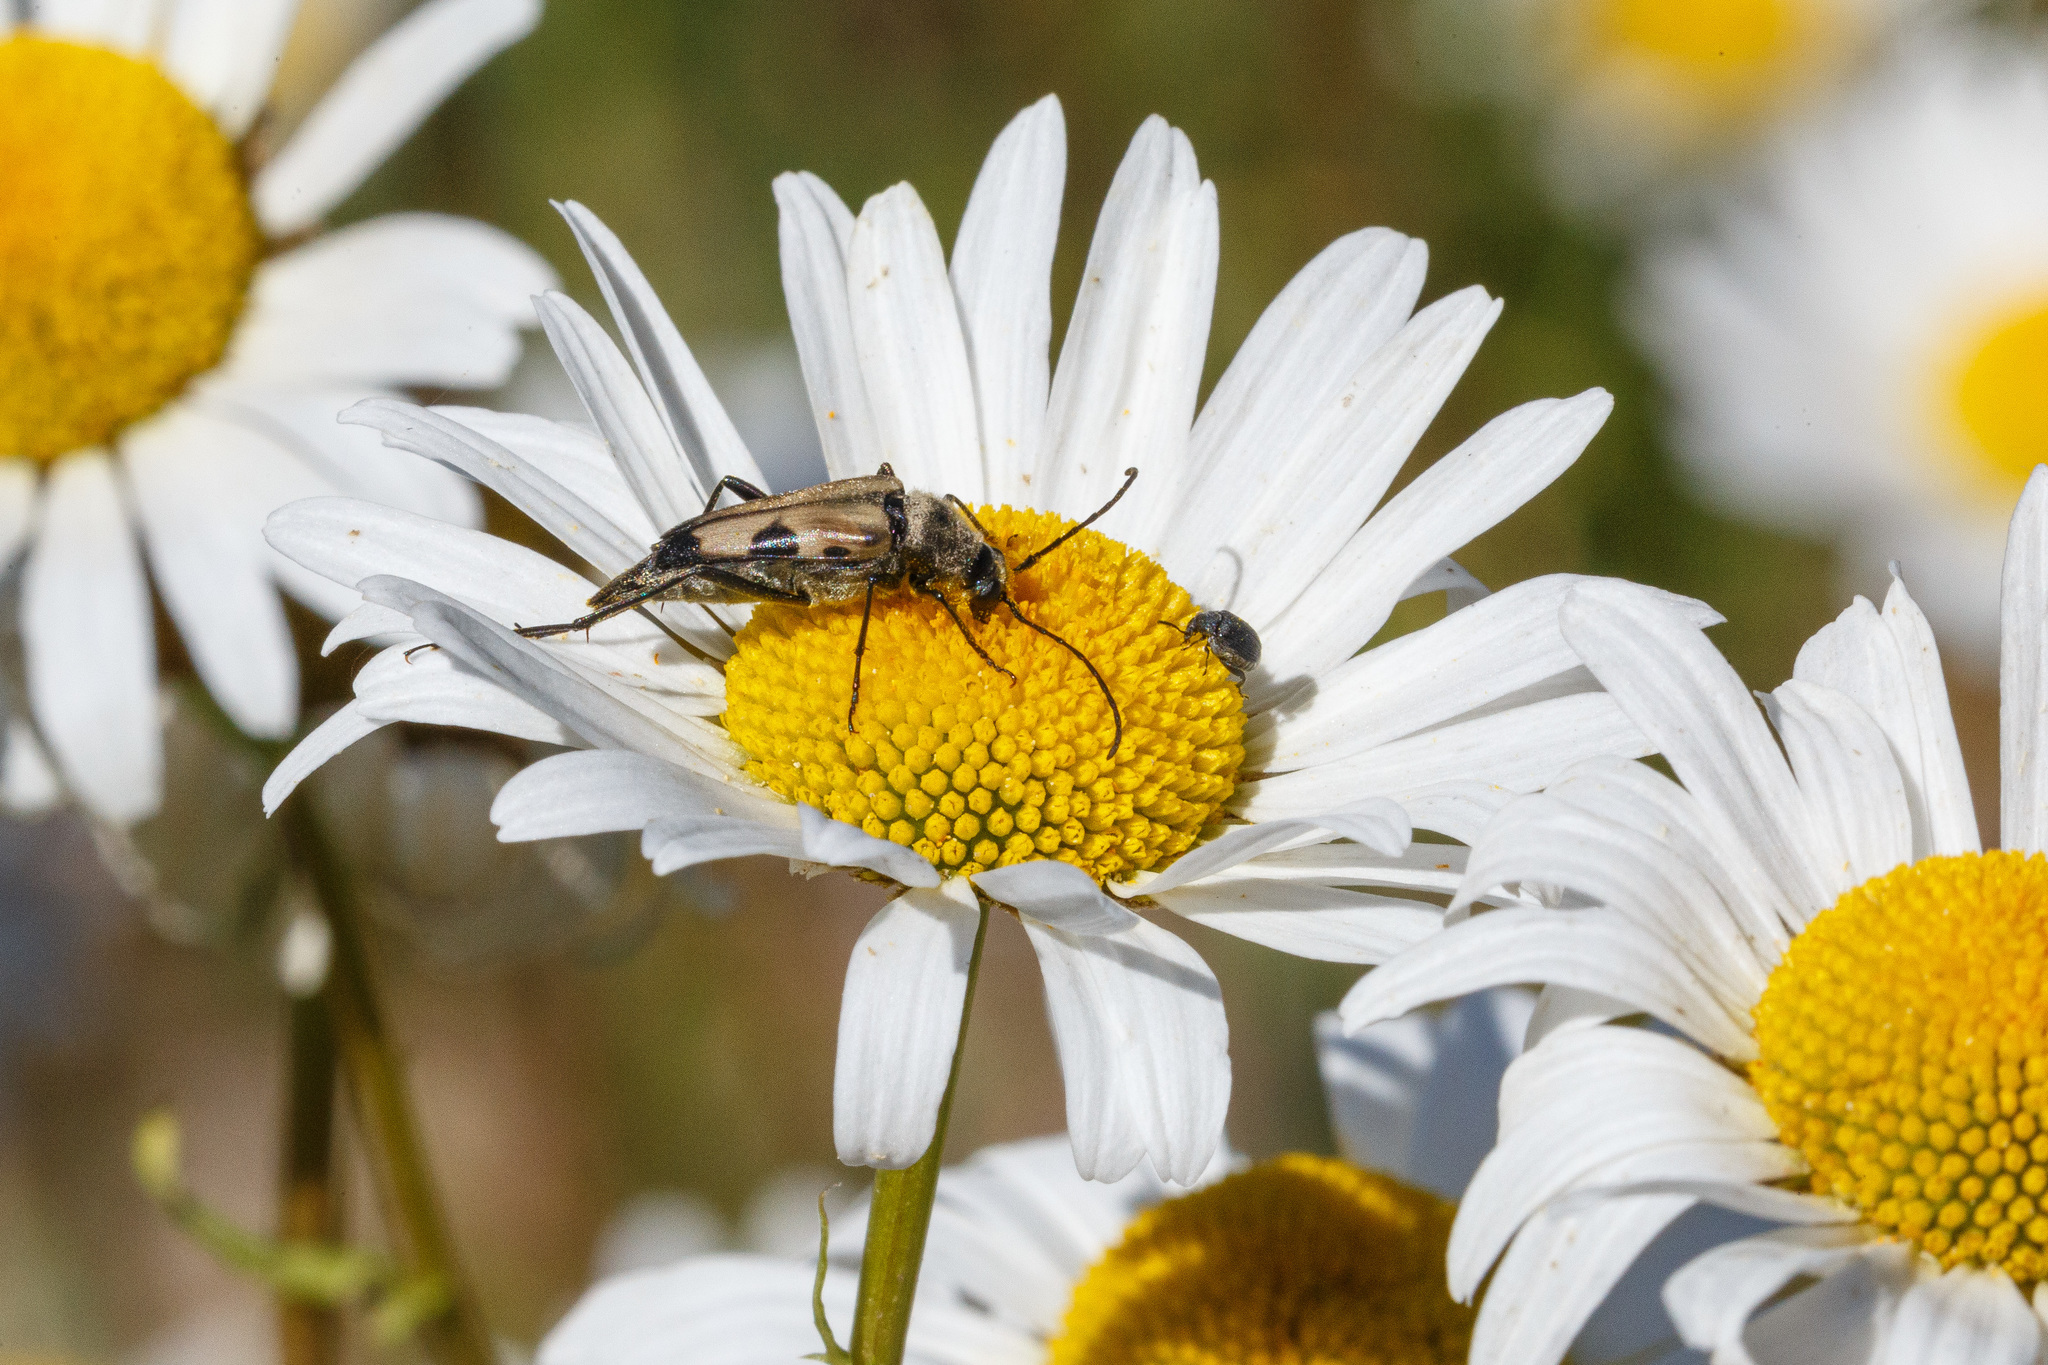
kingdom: Animalia
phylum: Arthropoda
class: Insecta
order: Coleoptera
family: Cerambycidae
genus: Etorofus
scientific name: Etorofus
